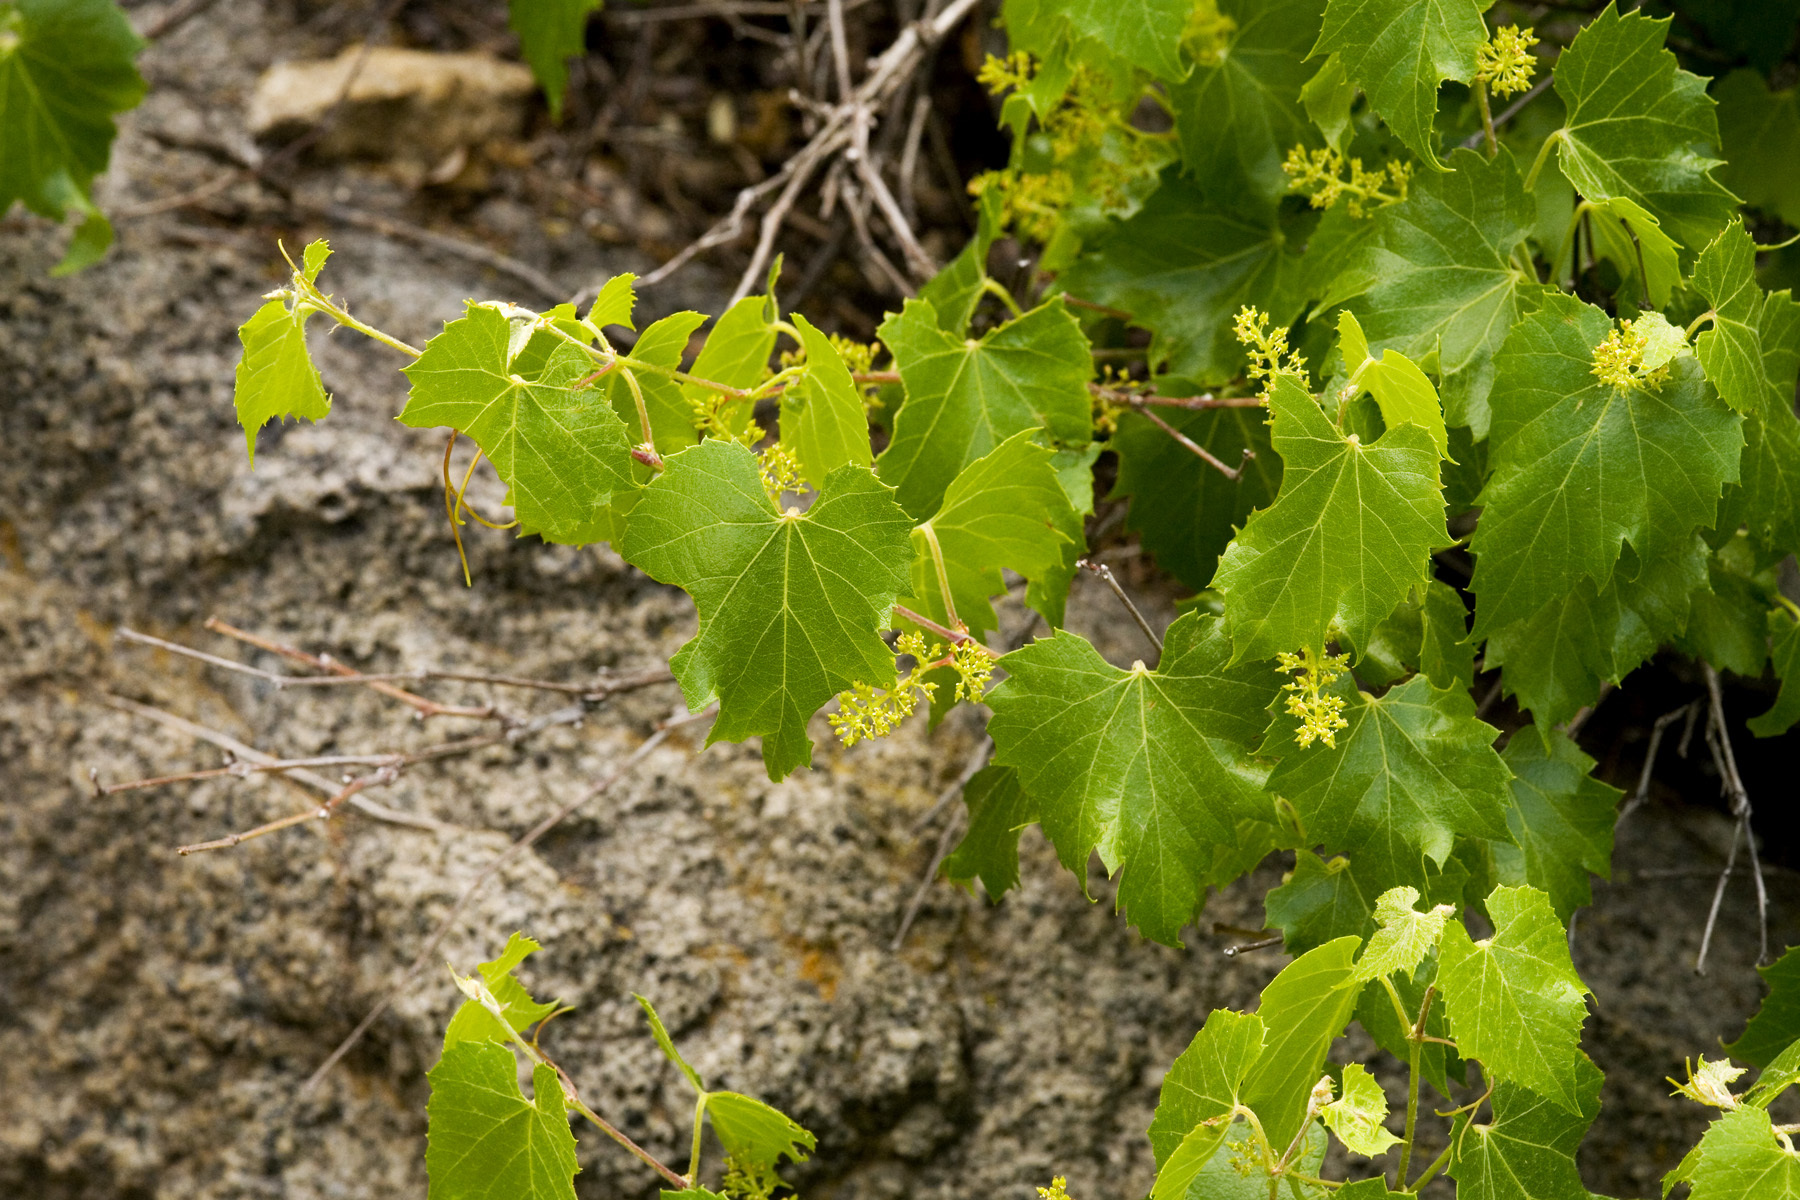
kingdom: Plantae
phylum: Tracheophyta
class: Magnoliopsida
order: Vitales
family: Vitaceae
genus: Vitis
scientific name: Vitis arizonica
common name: Canyon grape
